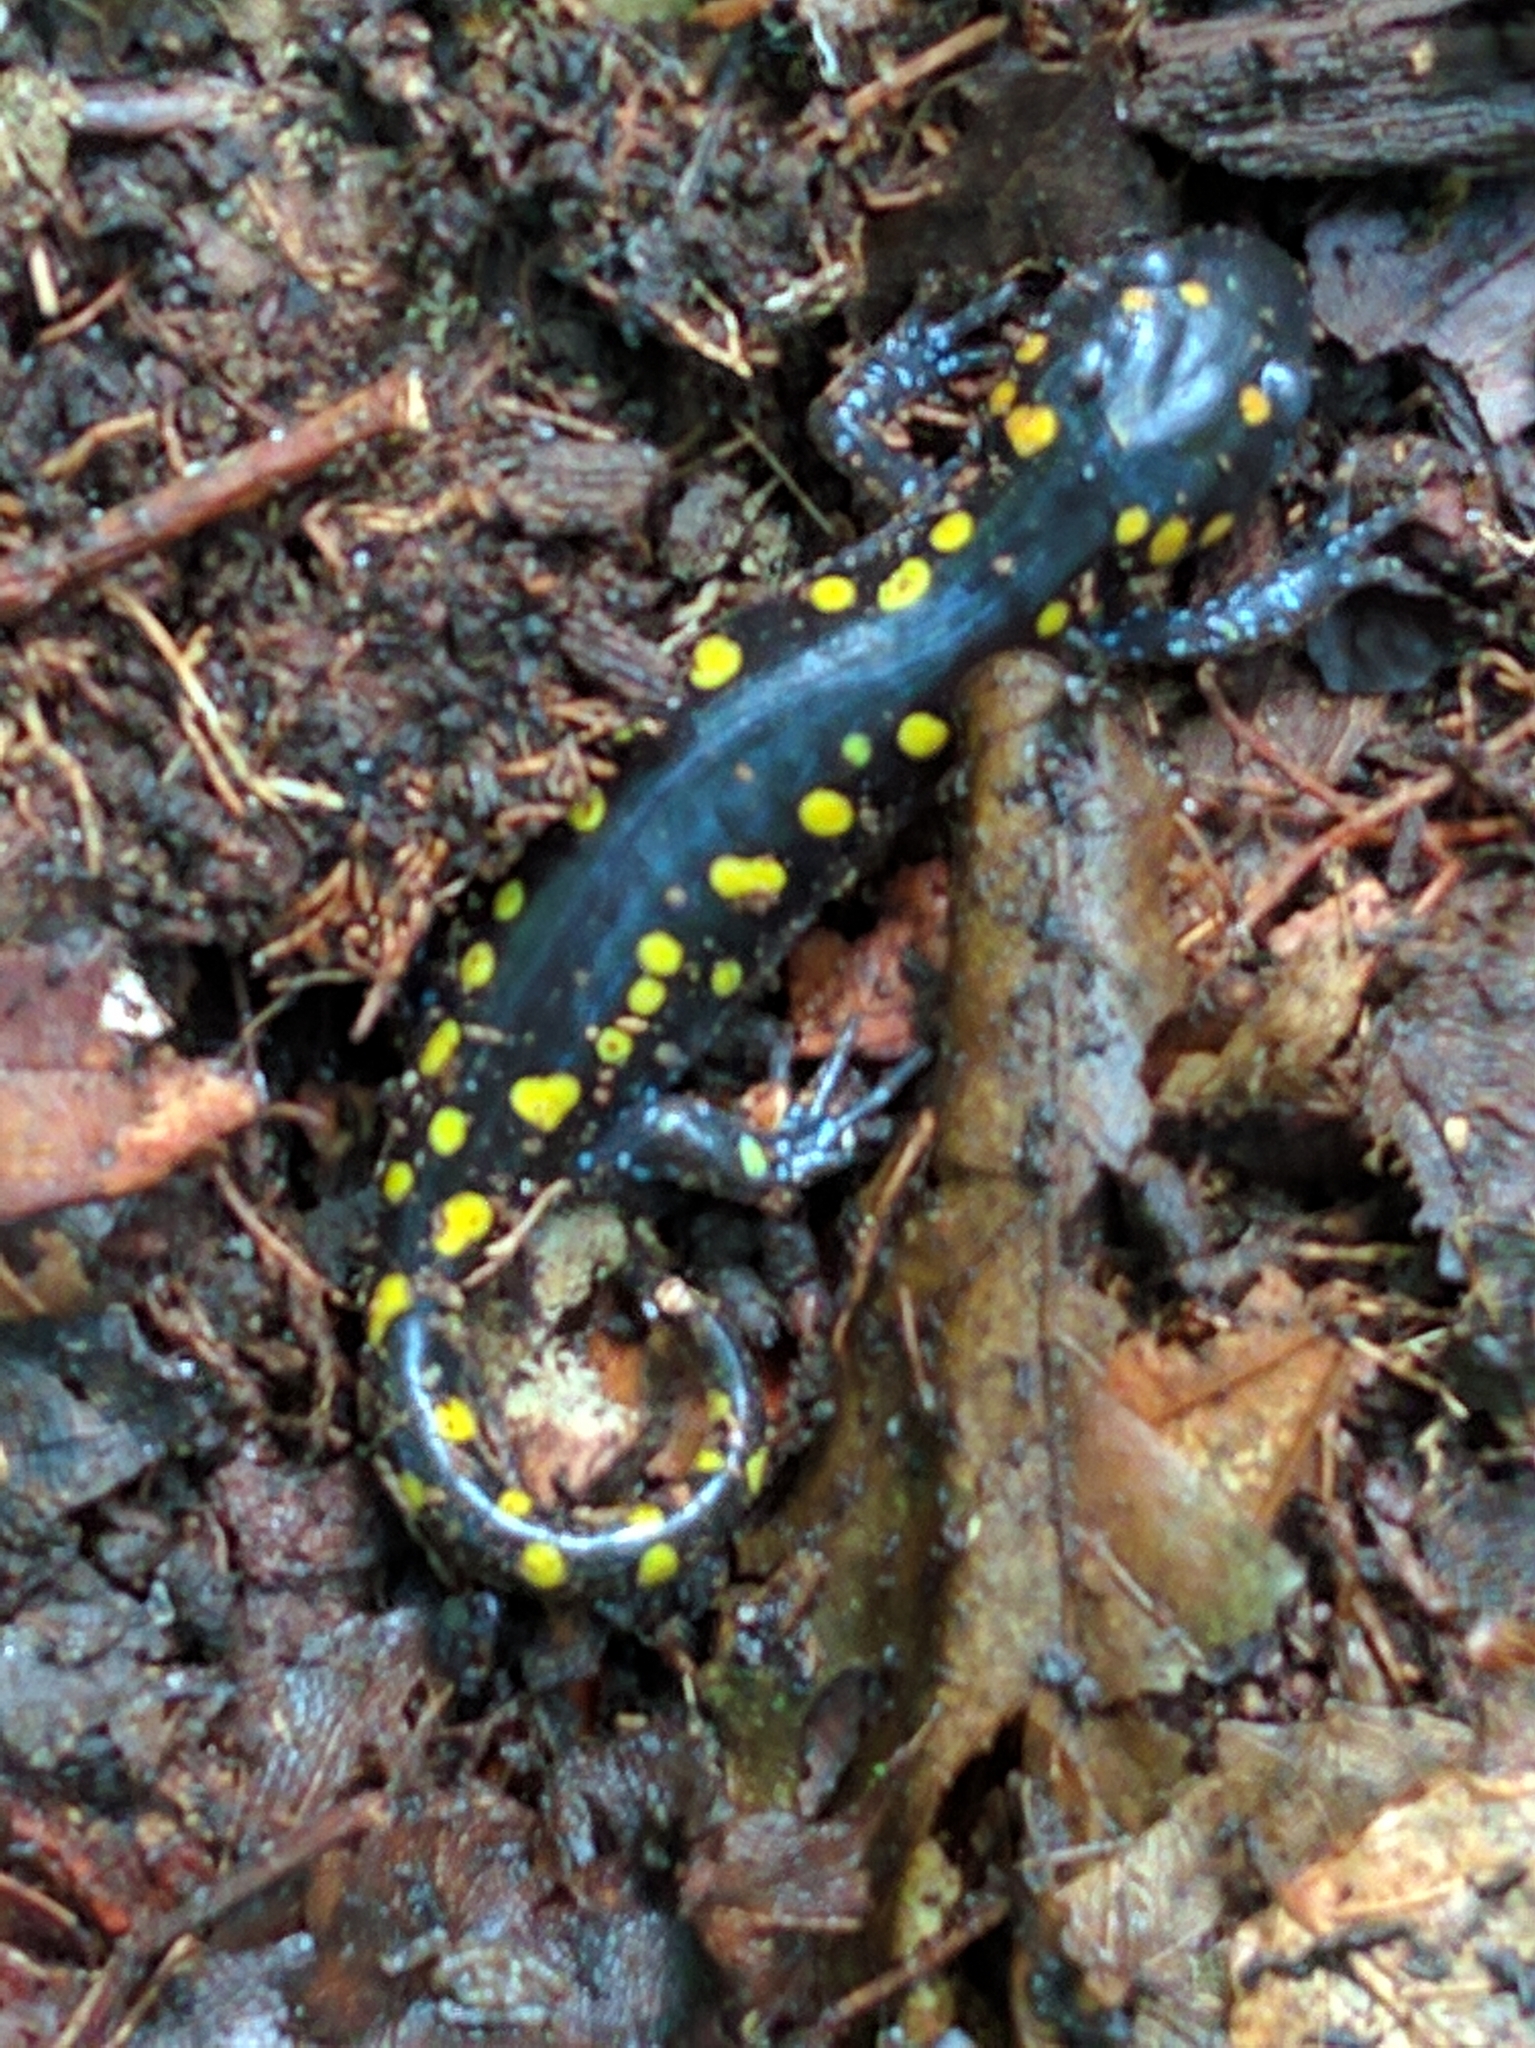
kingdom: Animalia
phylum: Chordata
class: Amphibia
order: Caudata
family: Ambystomatidae
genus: Ambystoma
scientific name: Ambystoma maculatum
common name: Spotted salamander
